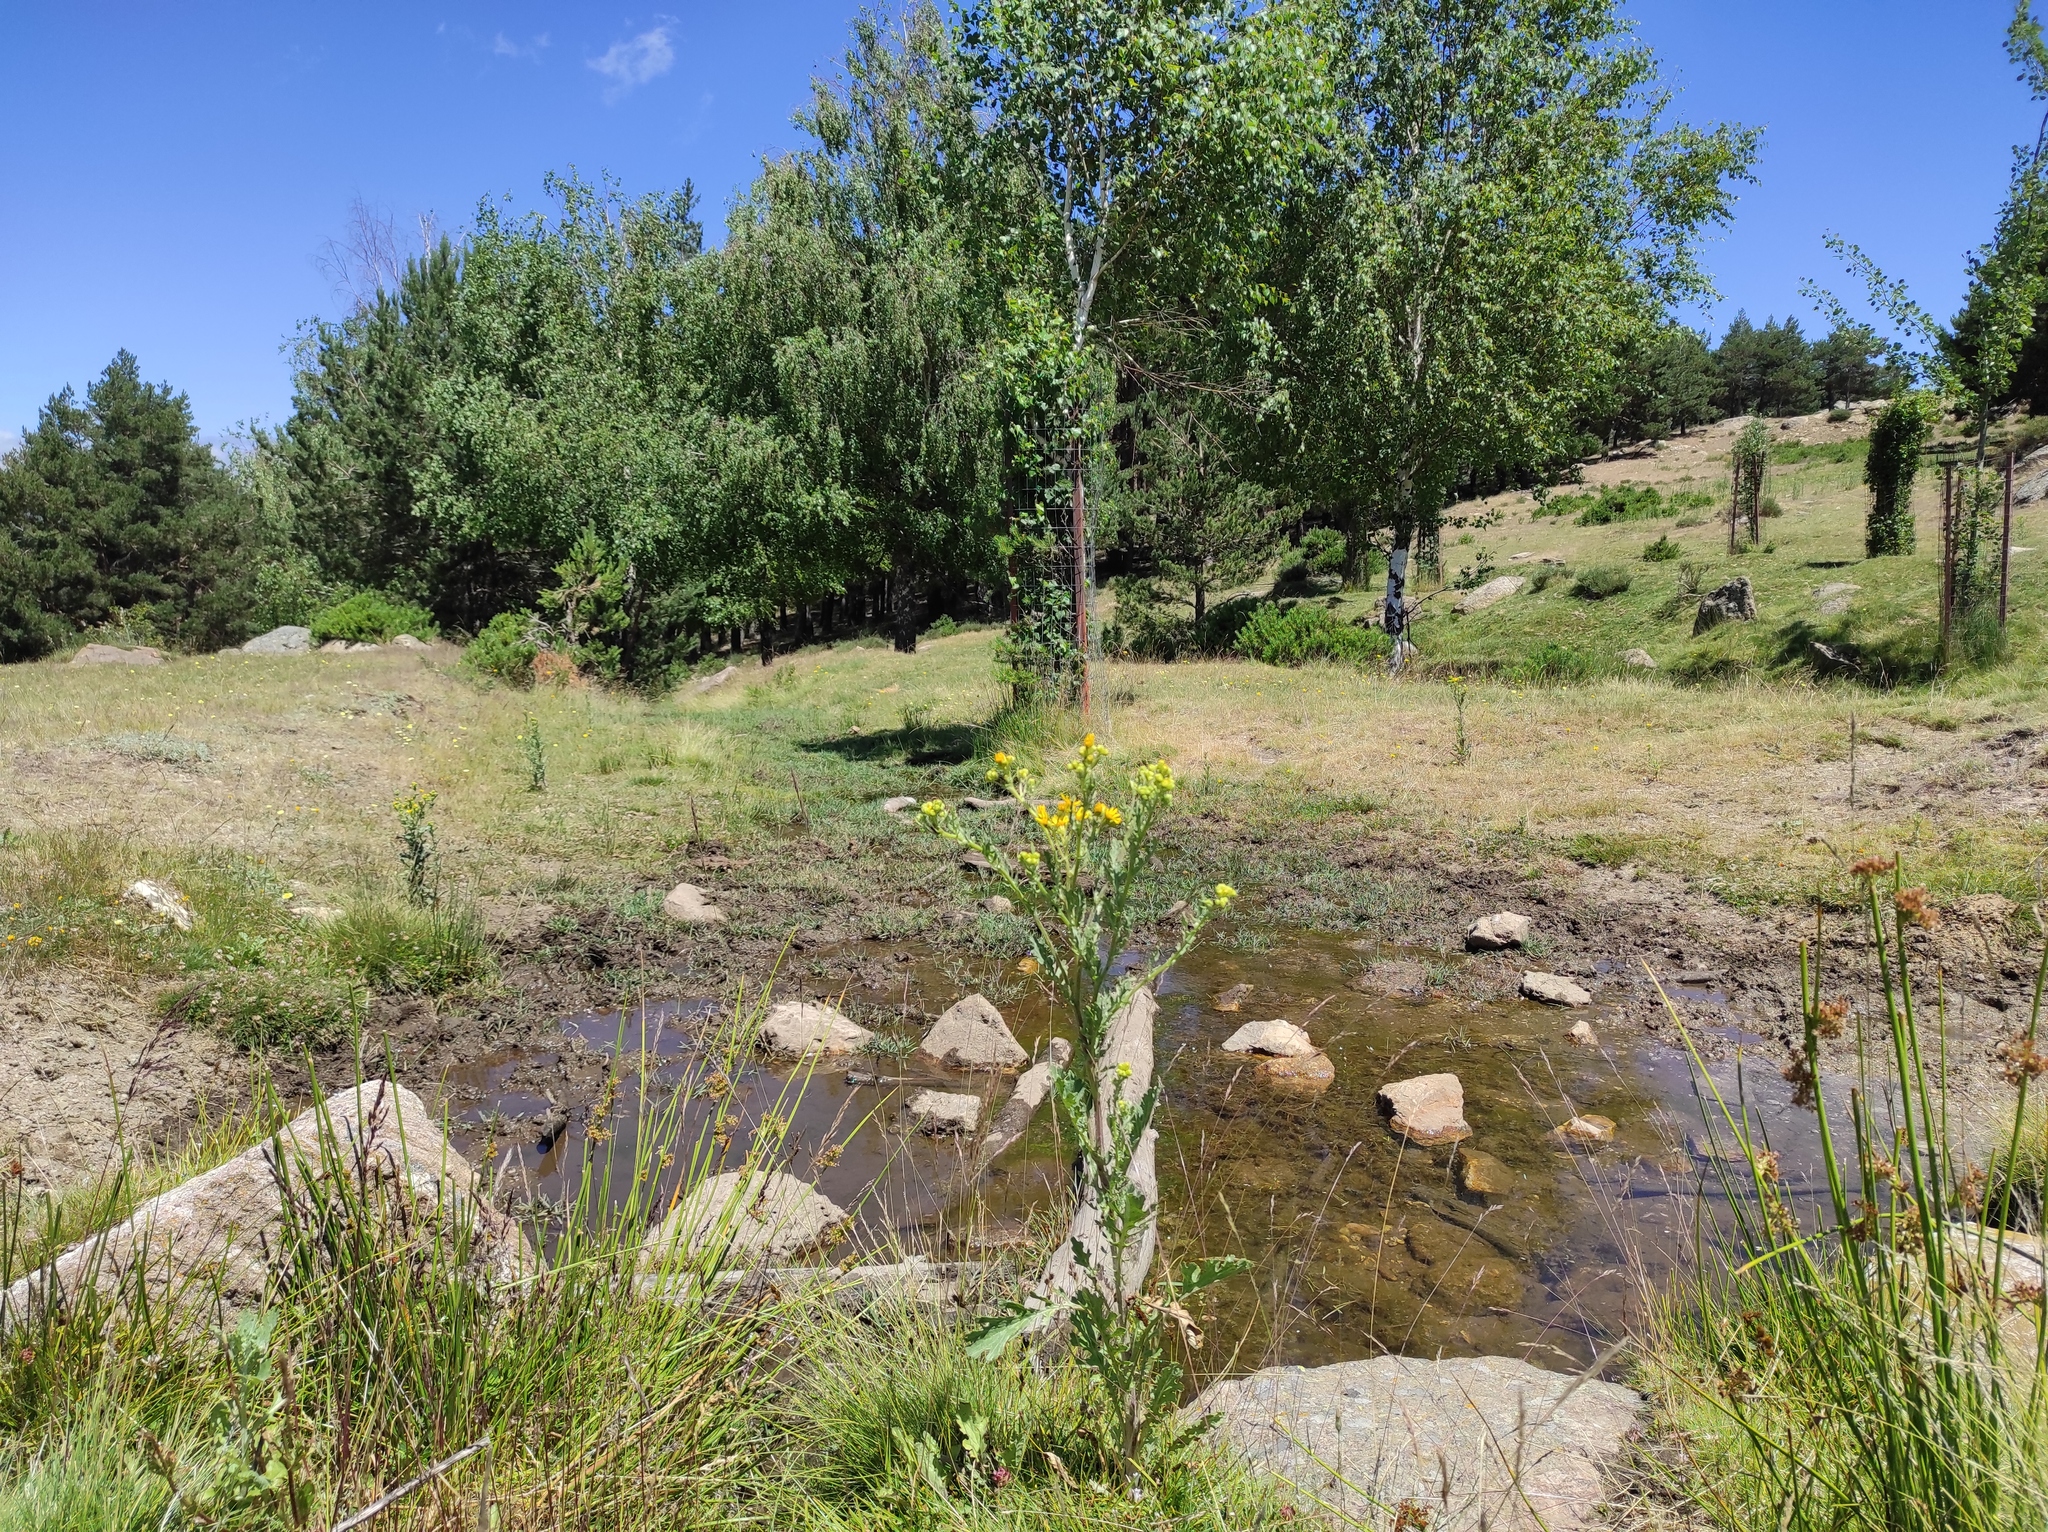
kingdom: Animalia
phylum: Arthropoda
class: Insecta
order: Lepidoptera
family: Nymphalidae
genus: Melanargia
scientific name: Melanargia lachesis
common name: Iberian marbled white
